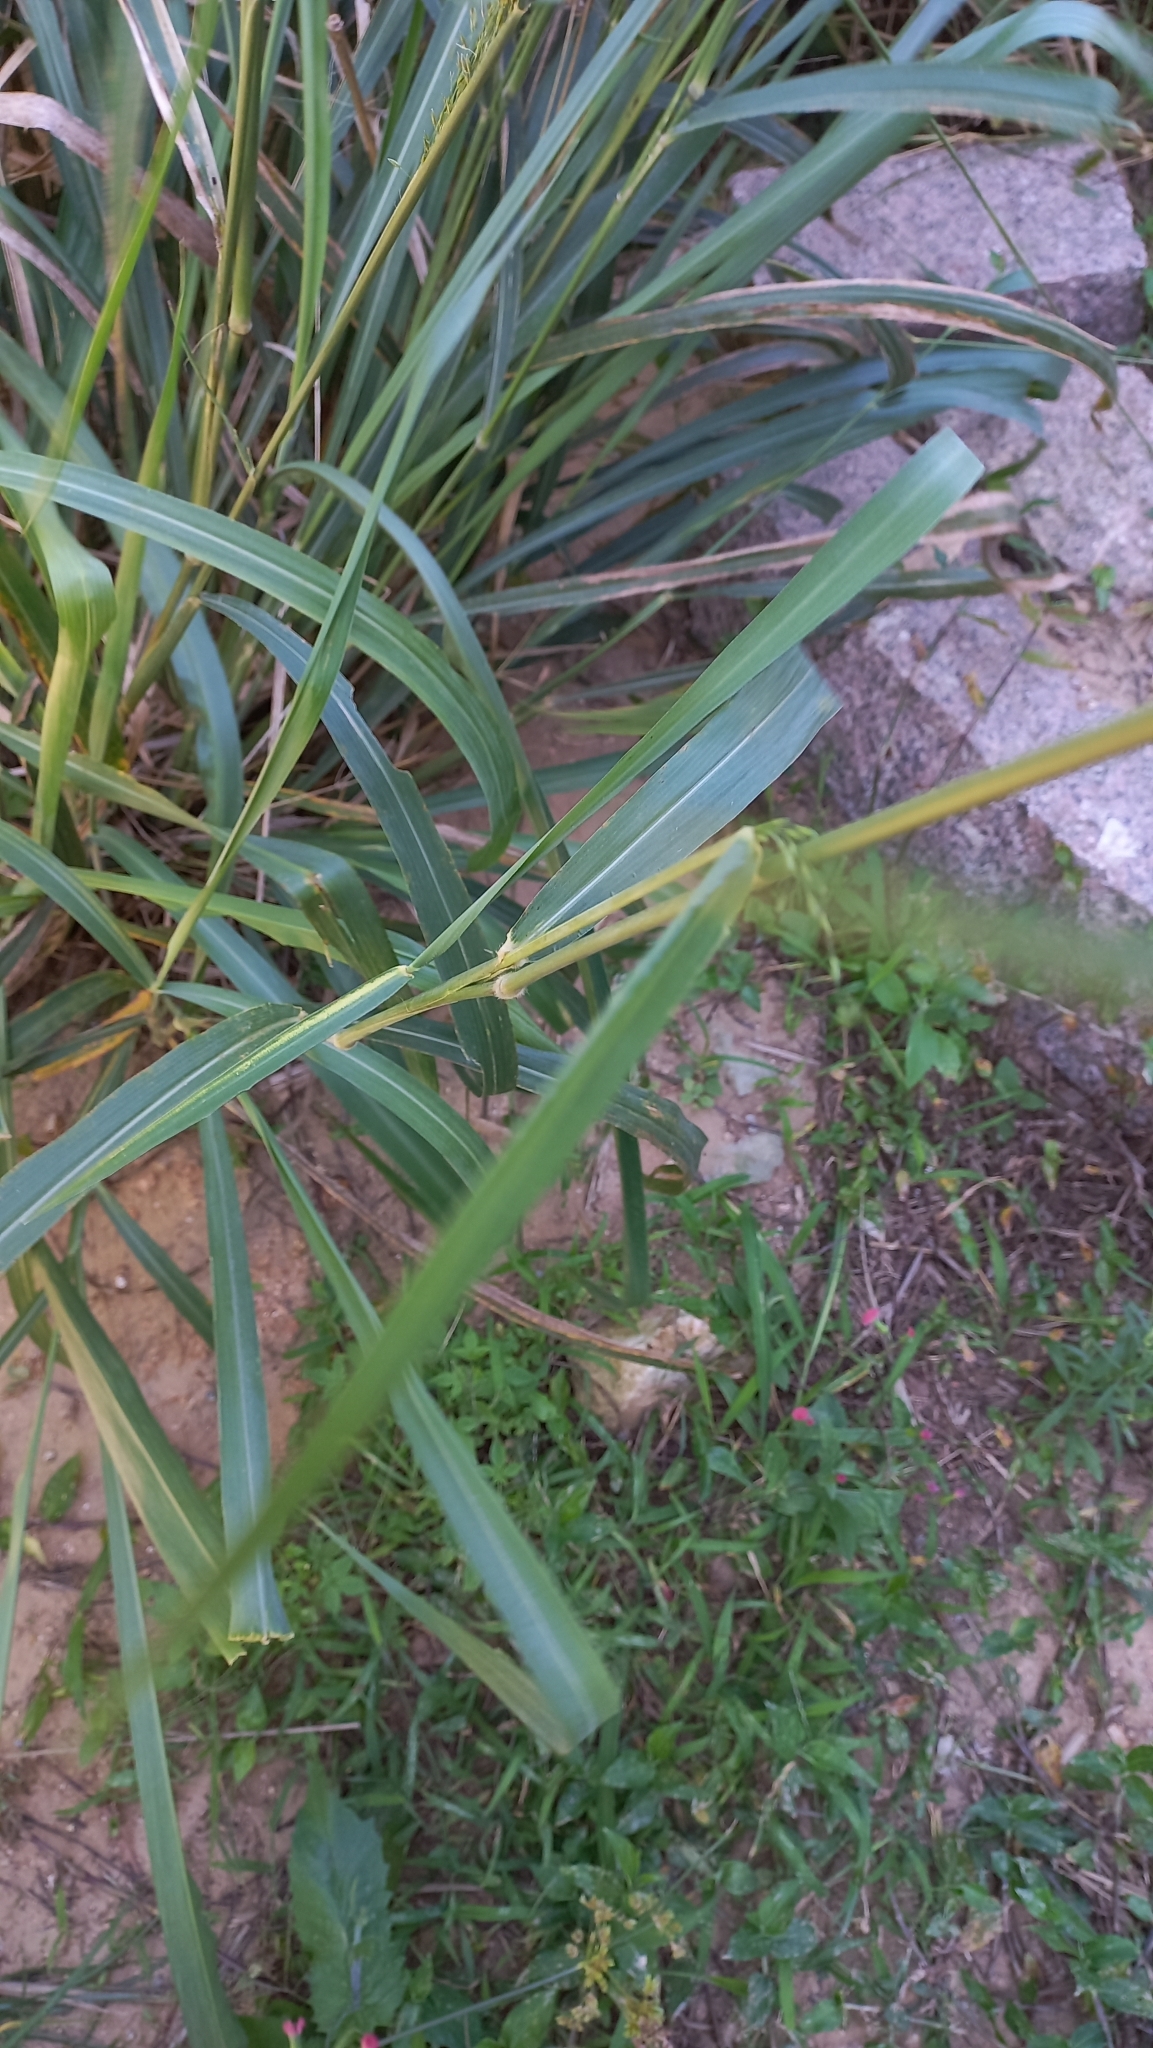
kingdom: Plantae
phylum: Tracheophyta
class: Liliopsida
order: Poales
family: Poaceae
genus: Megathyrsus
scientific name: Megathyrsus maximus
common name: Guineagrass
